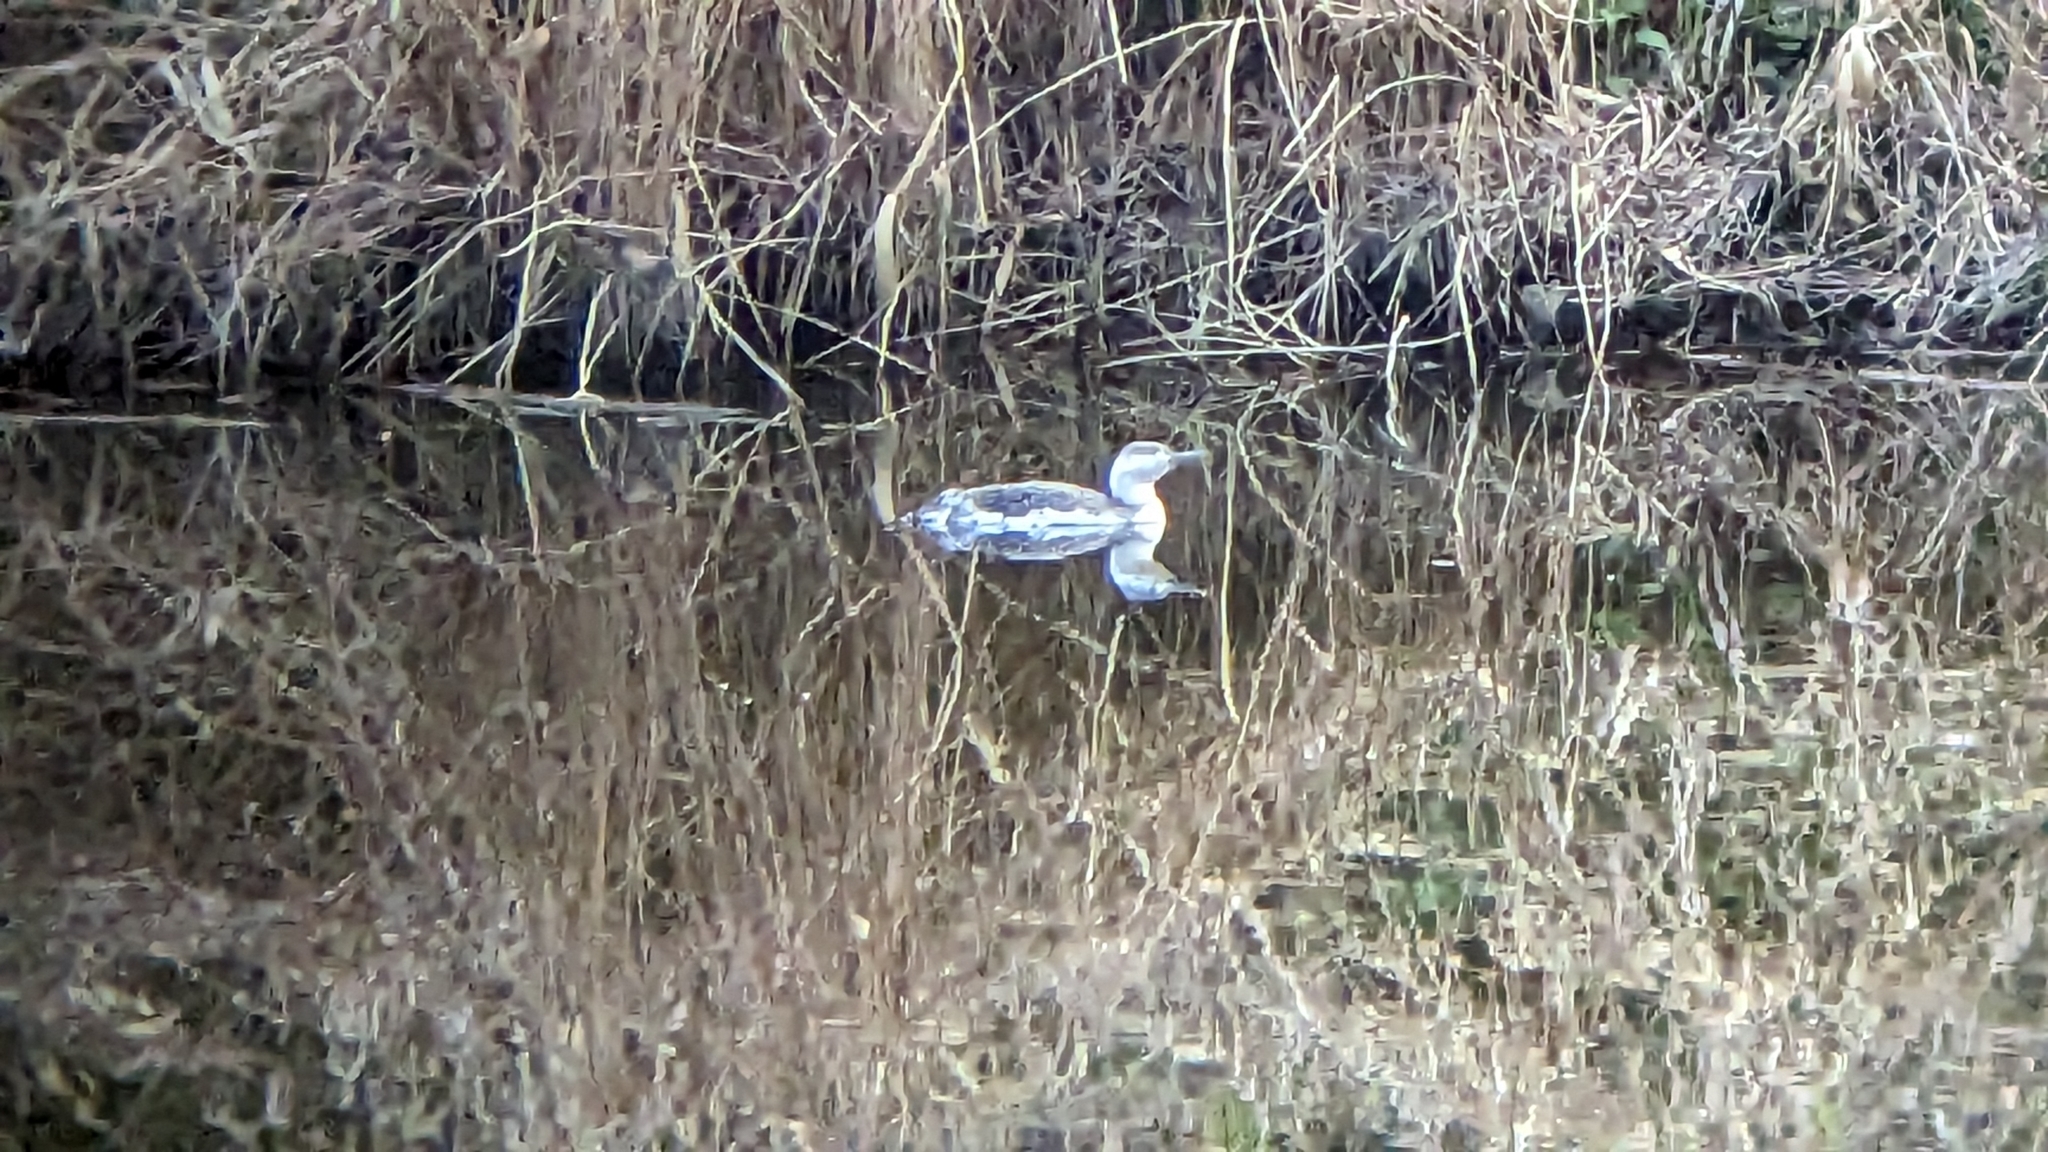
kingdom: Animalia
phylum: Chordata
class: Aves
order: Gaviiformes
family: Gaviidae
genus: Gavia
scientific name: Gavia stellata
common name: Red-throated loon
